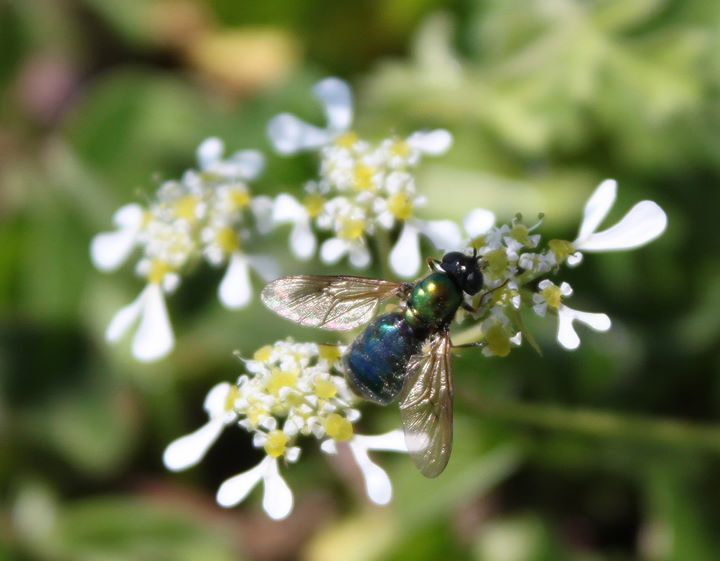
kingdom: Plantae
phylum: Tracheophyta
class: Magnoliopsida
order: Apiales
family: Apiaceae
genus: Tordylium
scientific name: Tordylium apulum
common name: Mediterranean hartwort
